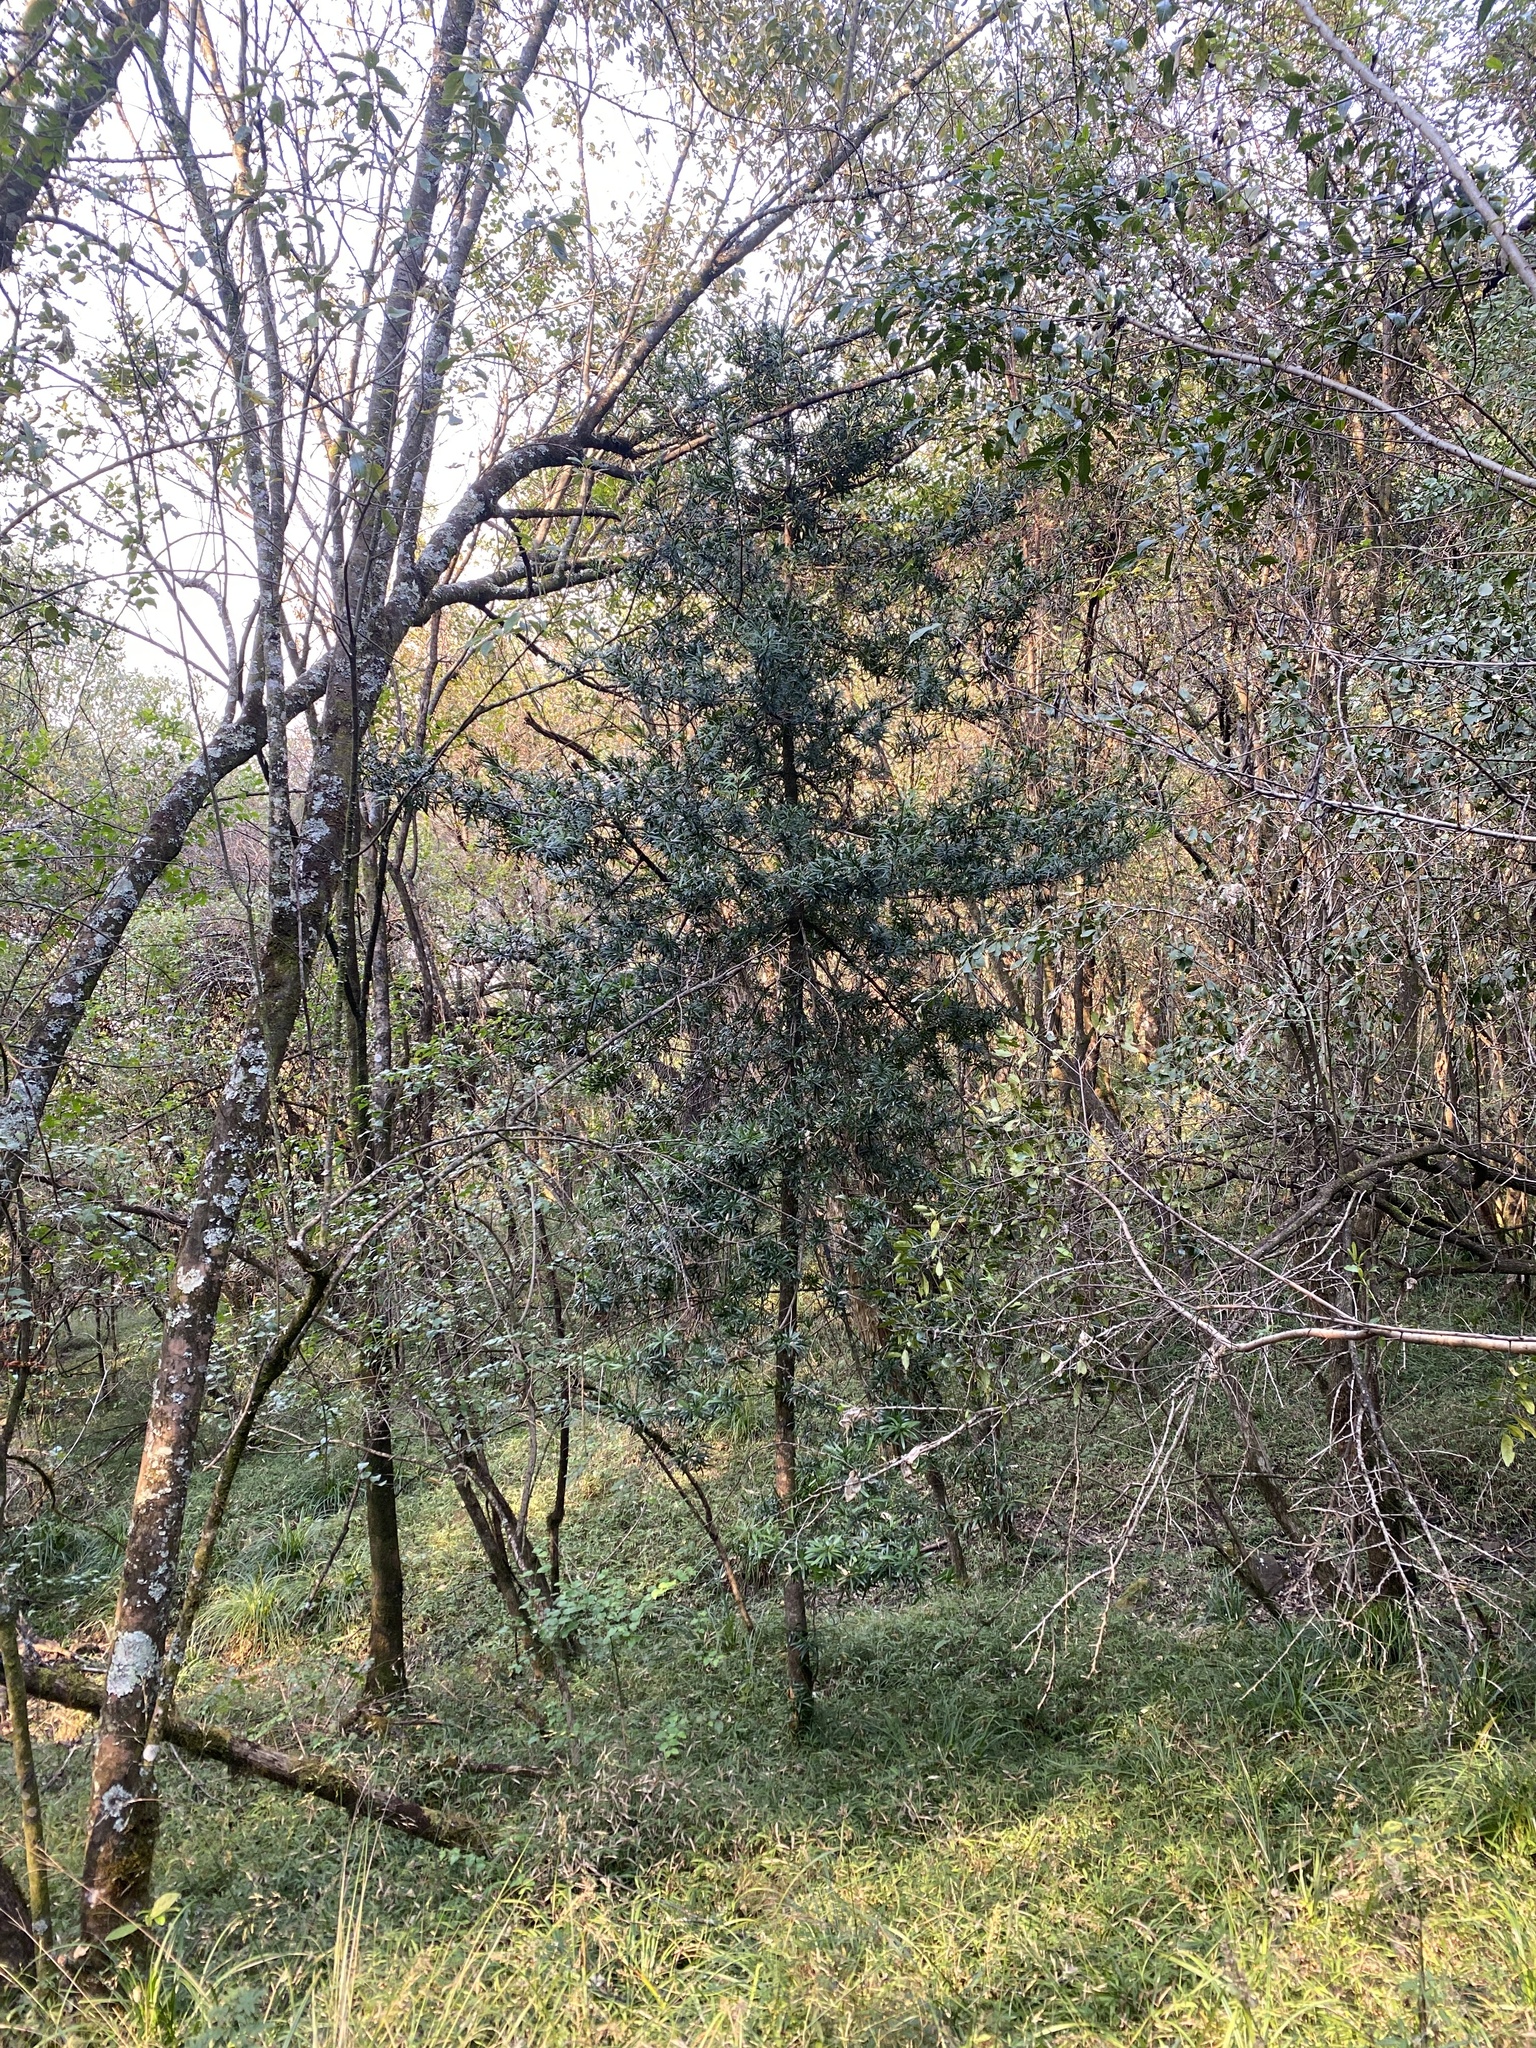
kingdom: Plantae
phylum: Tracheophyta
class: Pinopsida
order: Pinales
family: Podocarpaceae
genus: Podocarpus
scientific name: Podocarpus latifolius
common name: True yellowwood
